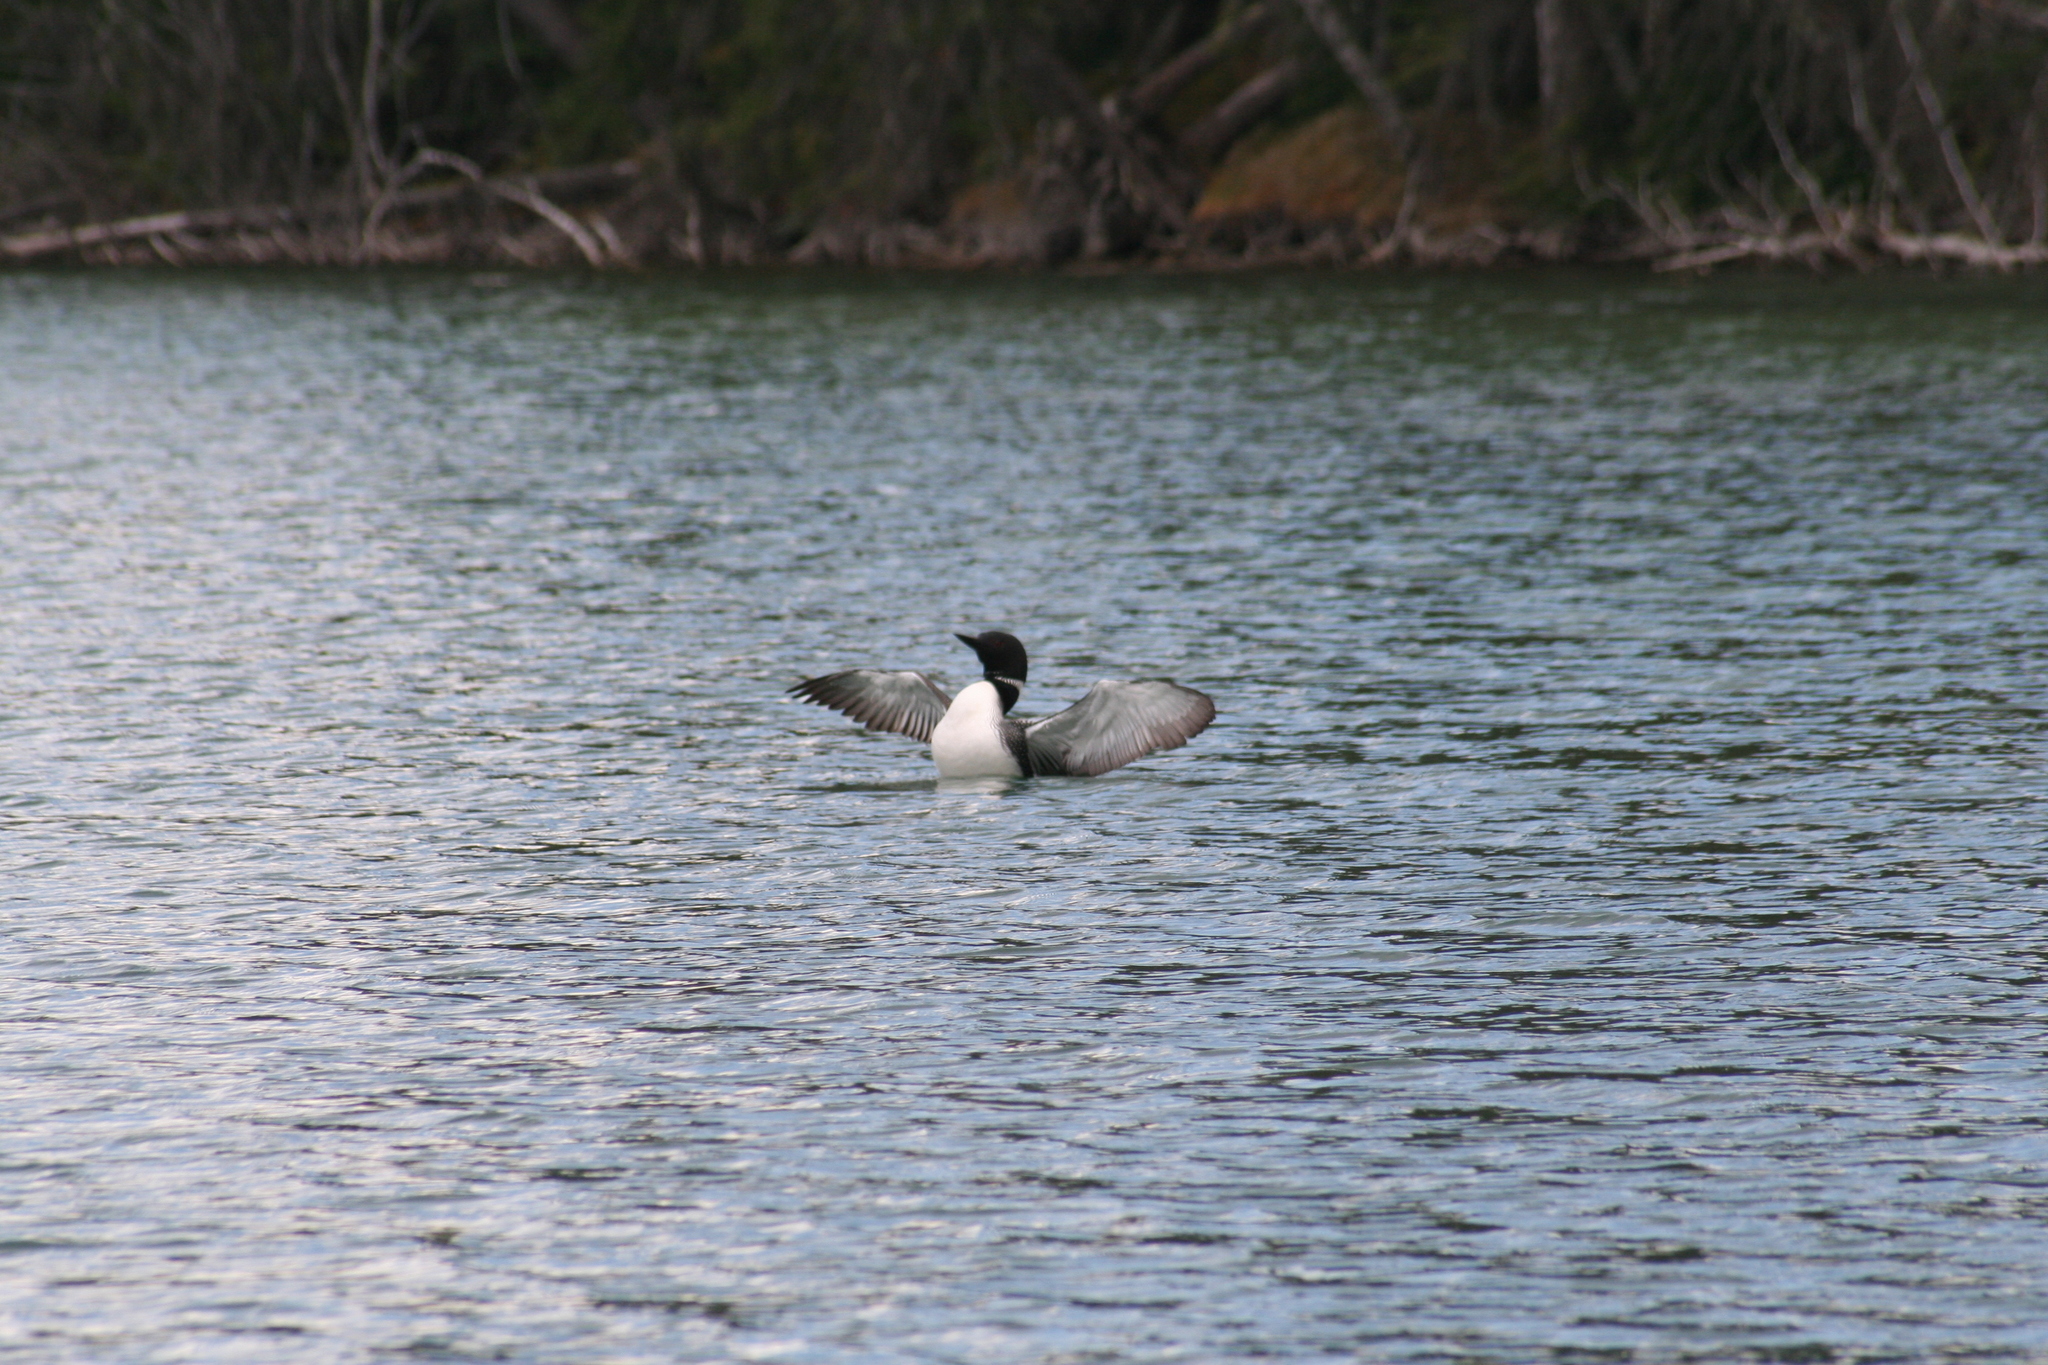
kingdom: Animalia
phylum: Chordata
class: Aves
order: Gaviiformes
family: Gaviidae
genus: Gavia
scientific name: Gavia immer
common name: Common loon
